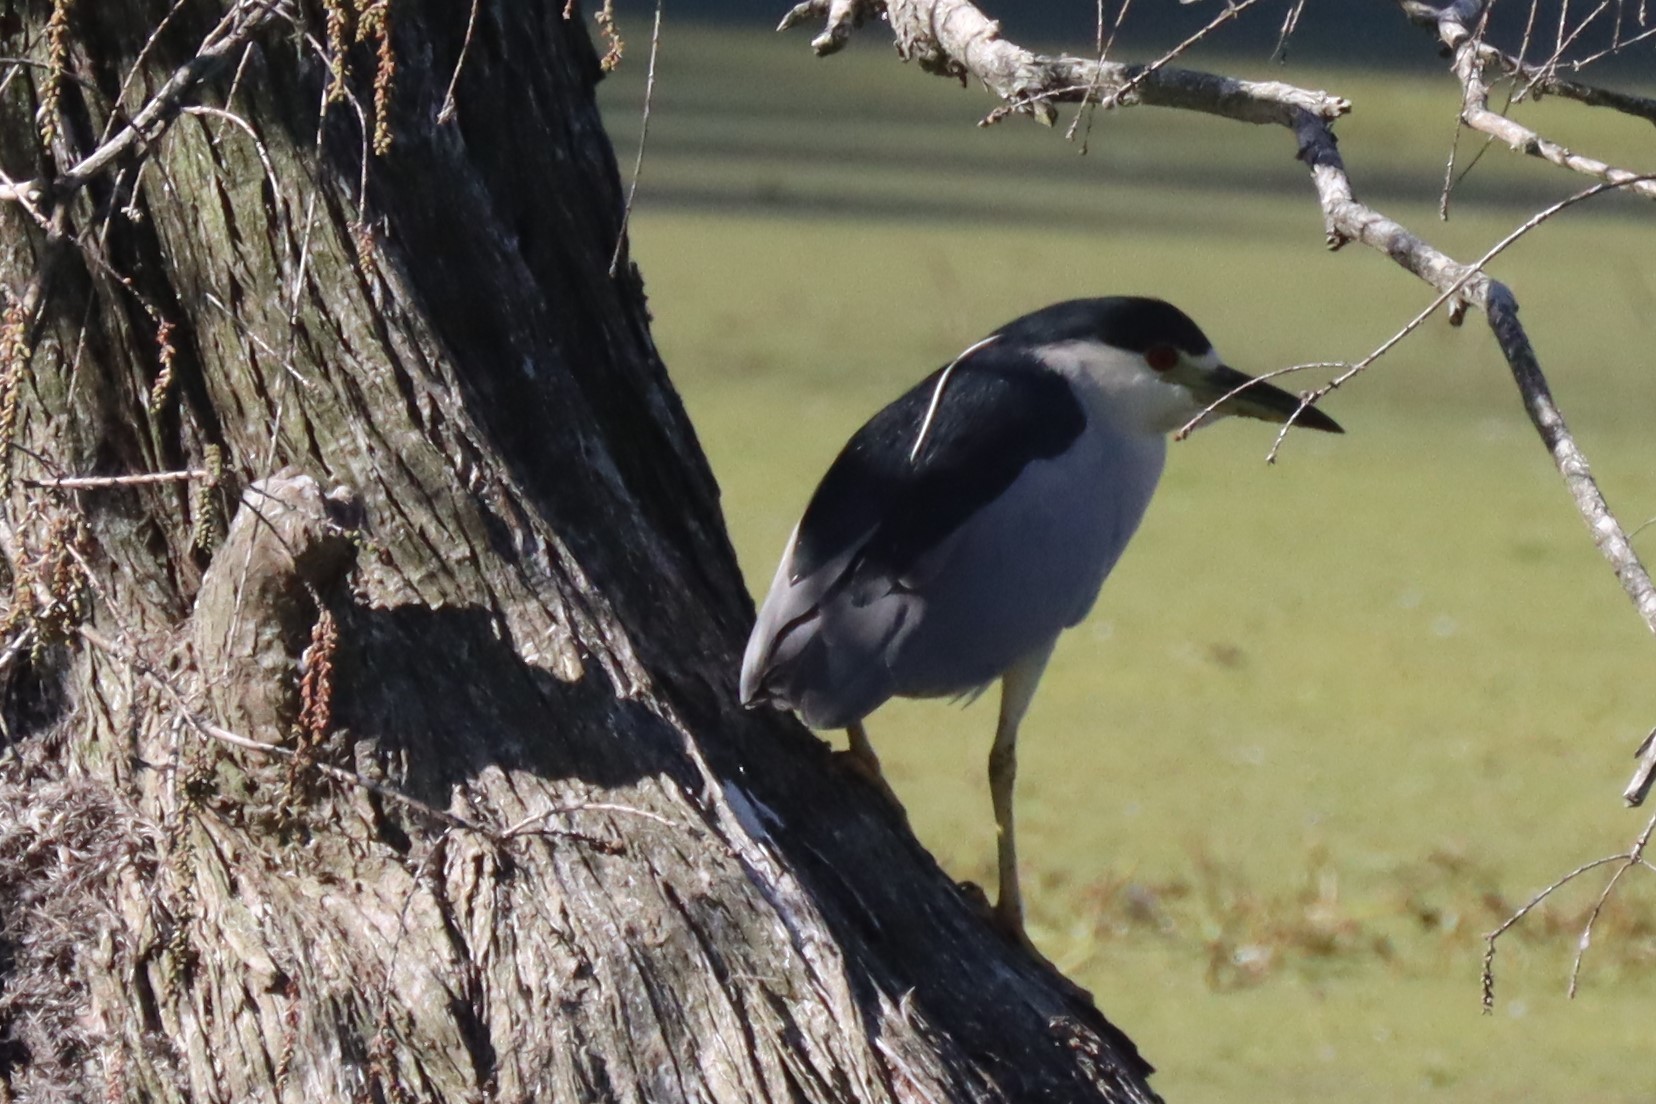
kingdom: Animalia
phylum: Chordata
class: Aves
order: Pelecaniformes
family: Ardeidae
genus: Nycticorax
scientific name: Nycticorax nycticorax
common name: Black-crowned night heron
